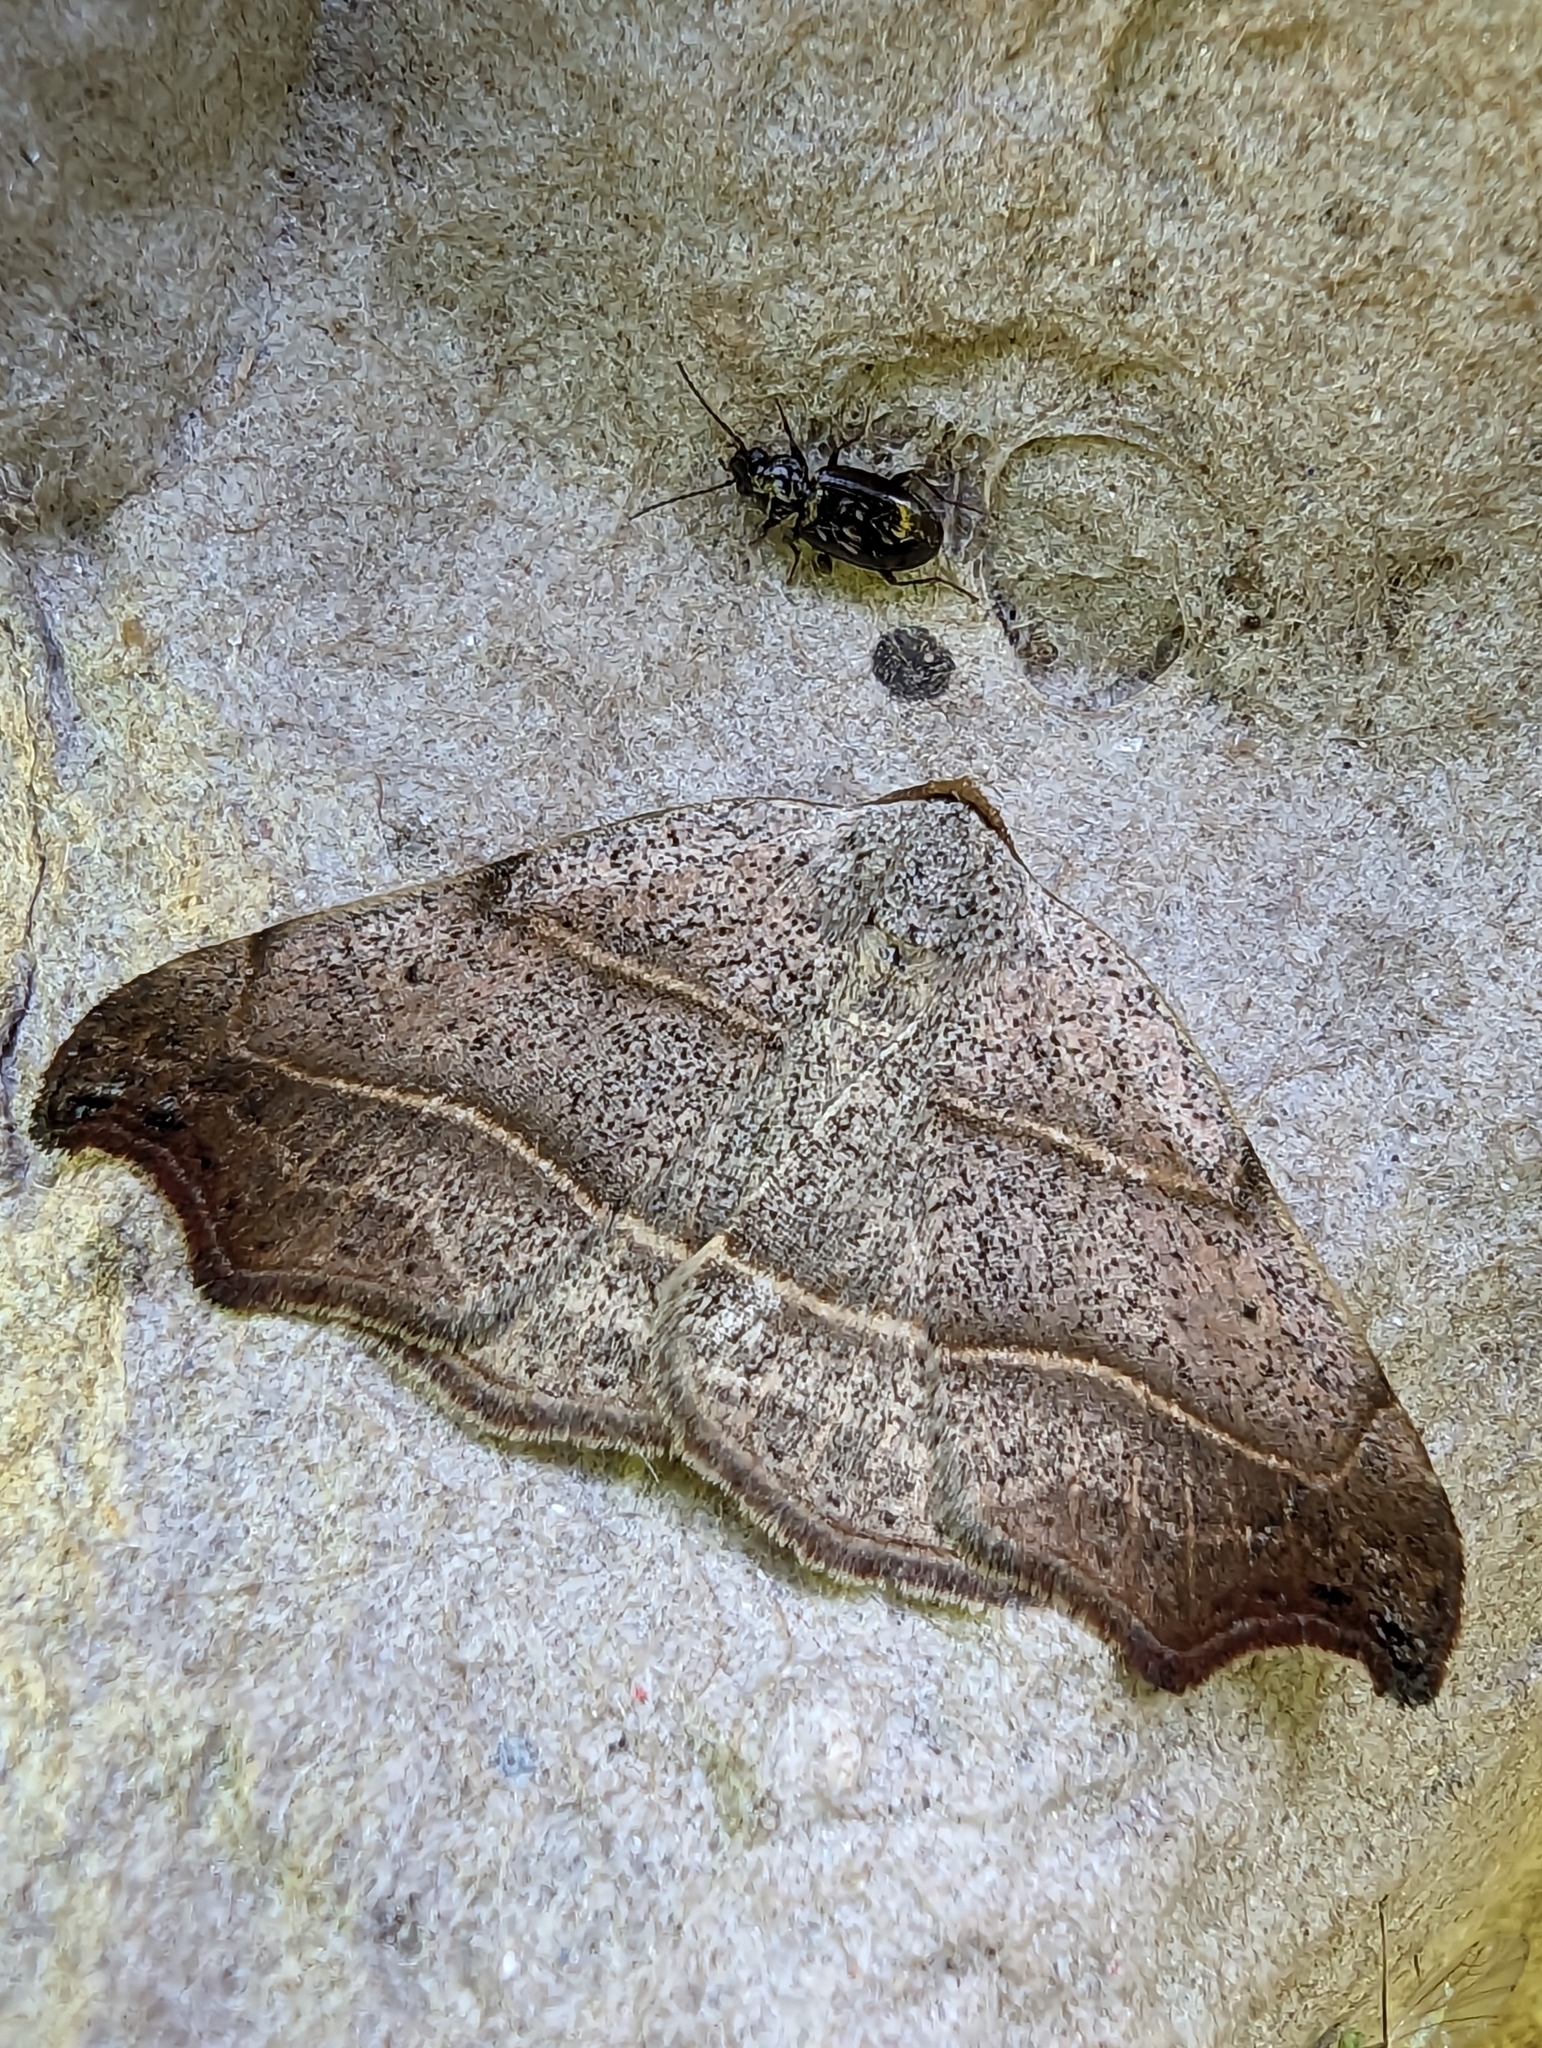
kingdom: Animalia
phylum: Arthropoda
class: Insecta
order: Lepidoptera
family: Erebidae
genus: Laspeyria
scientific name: Laspeyria flexula
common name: Beautiful hook-tip
